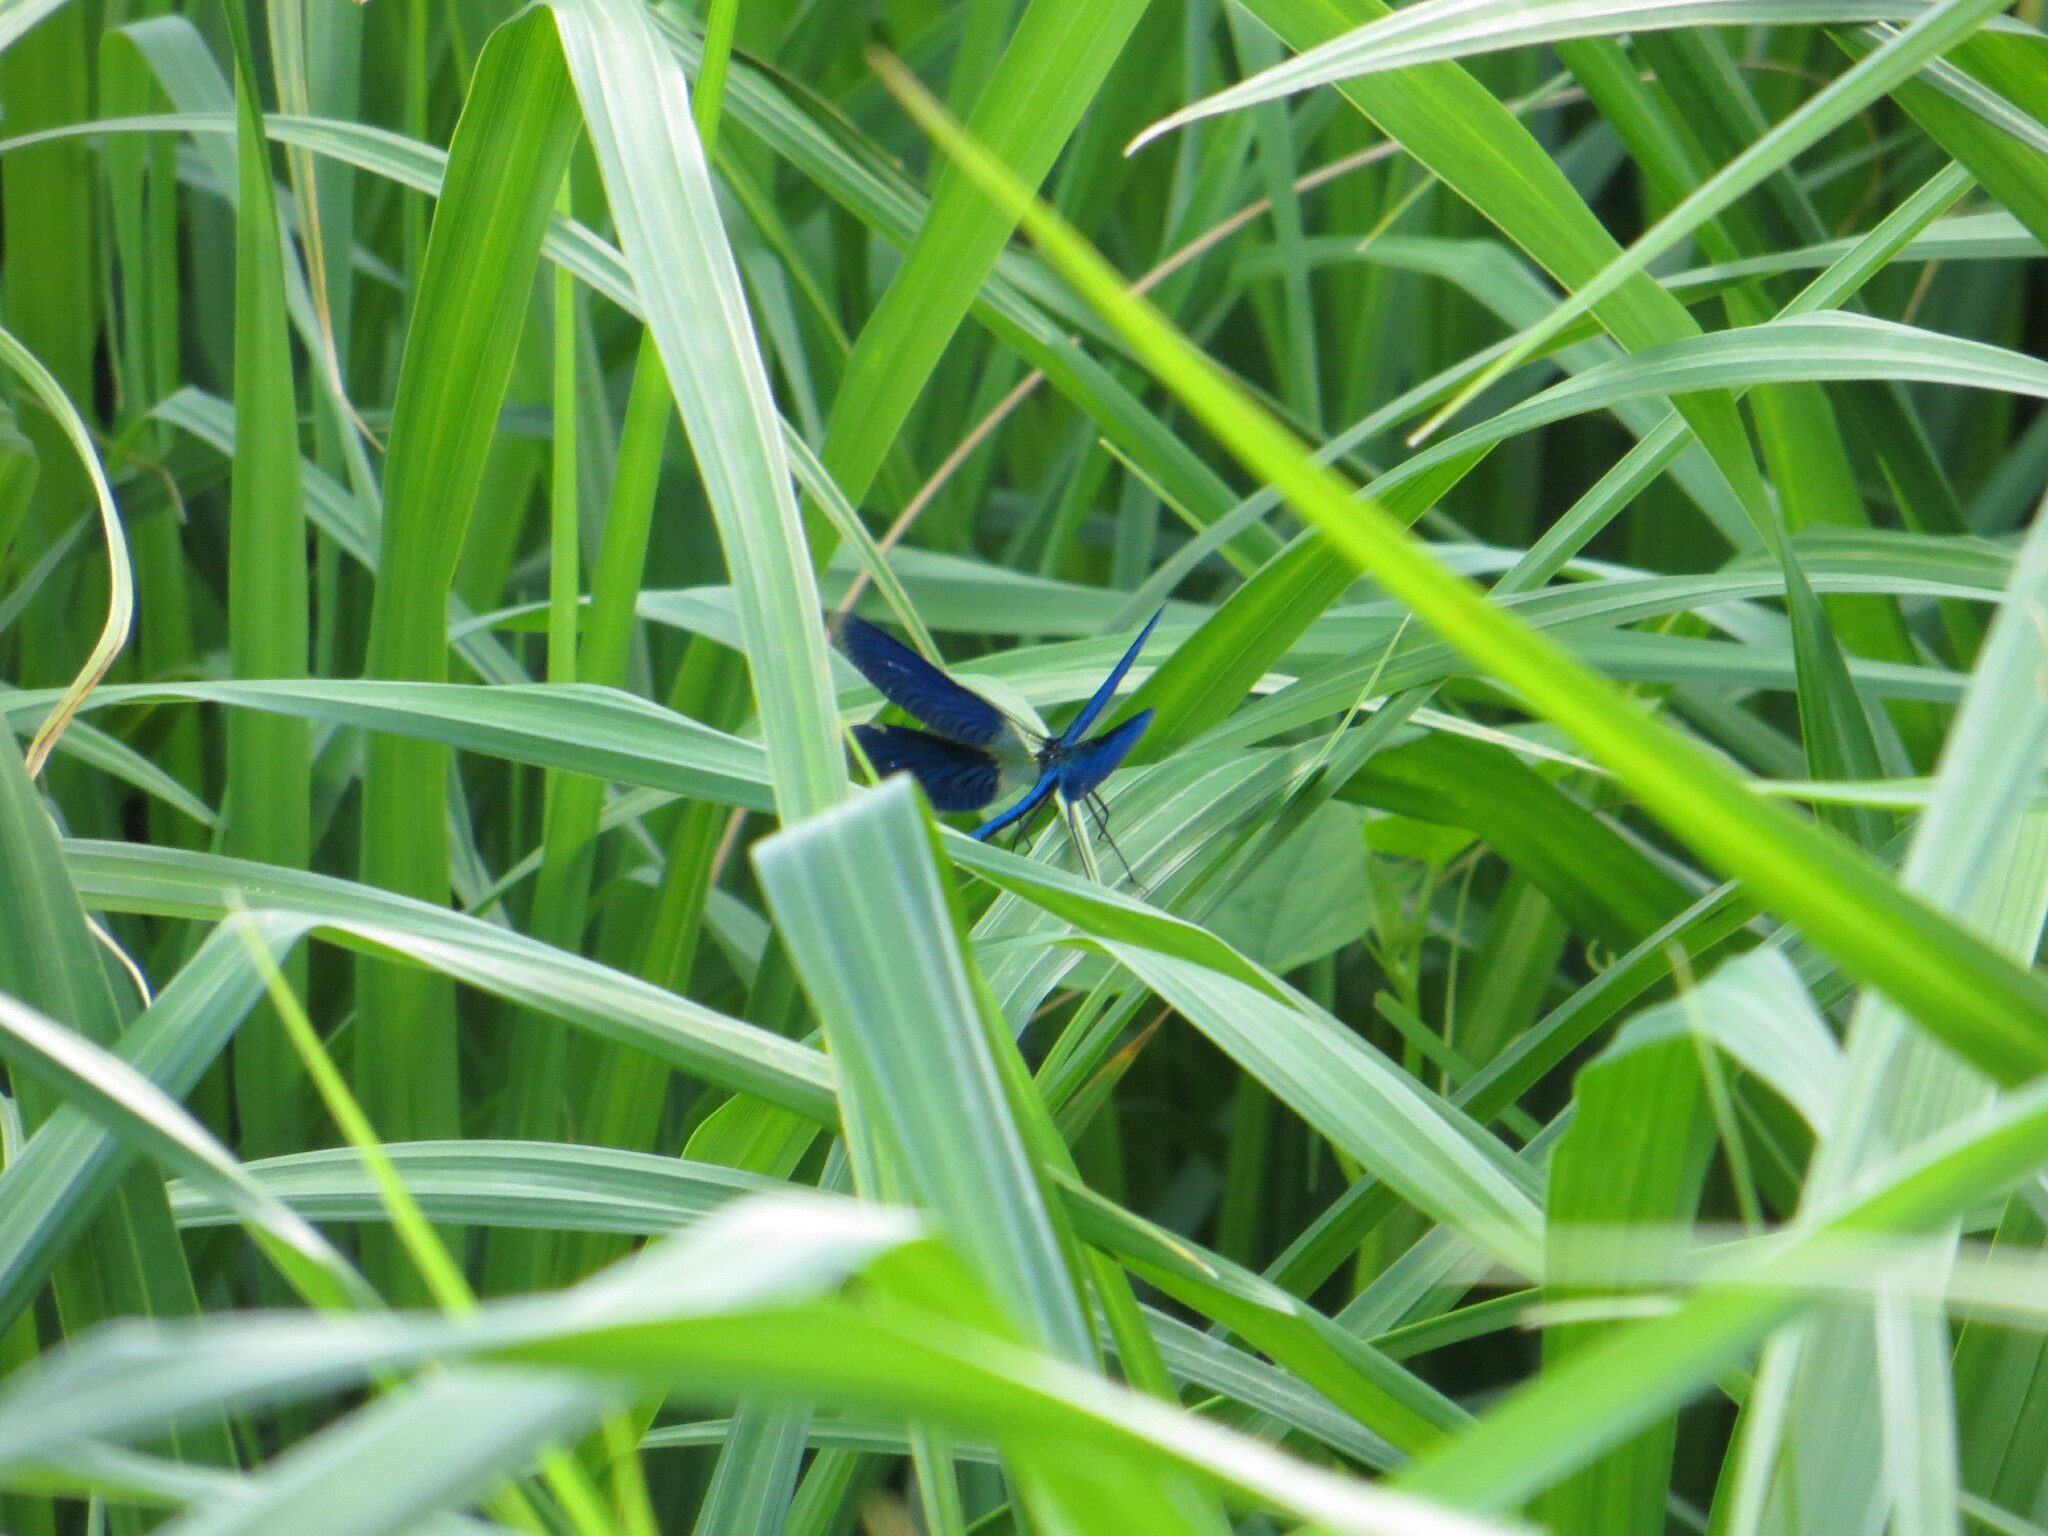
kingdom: Animalia
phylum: Arthropoda
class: Insecta
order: Odonata
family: Calopterygidae
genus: Calopteryx
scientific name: Calopteryx splendens
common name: Banded demoiselle
